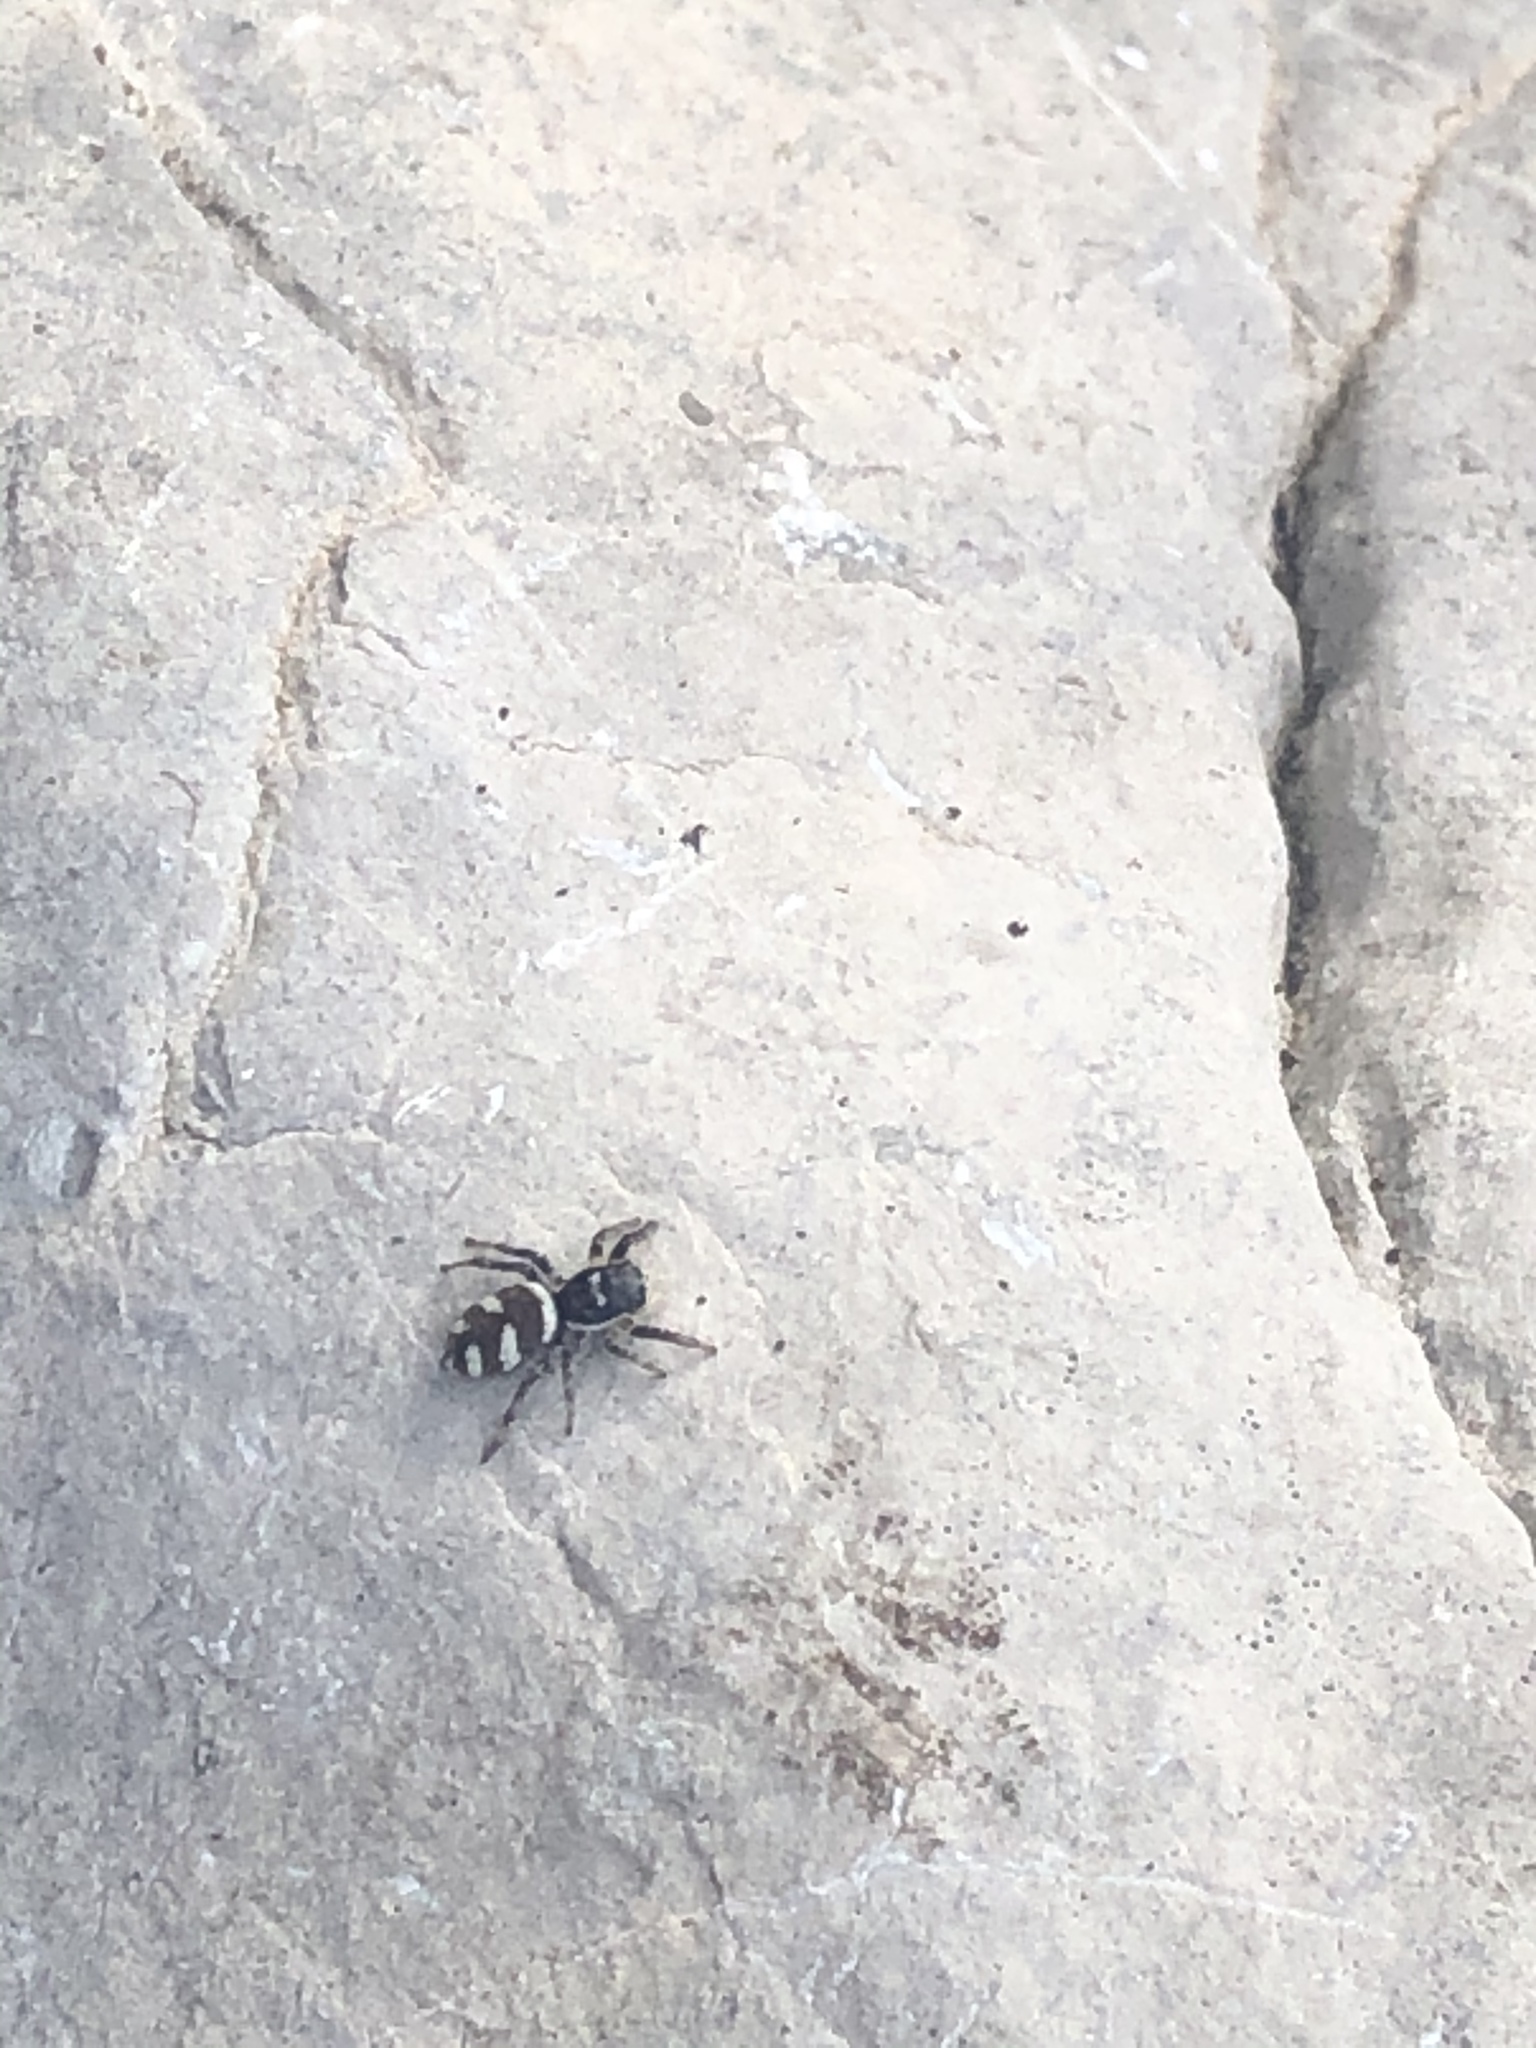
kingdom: Animalia
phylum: Arthropoda
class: Arachnida
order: Araneae
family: Salticidae
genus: Salticus
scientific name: Salticus scenicus
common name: Zebra jumper
